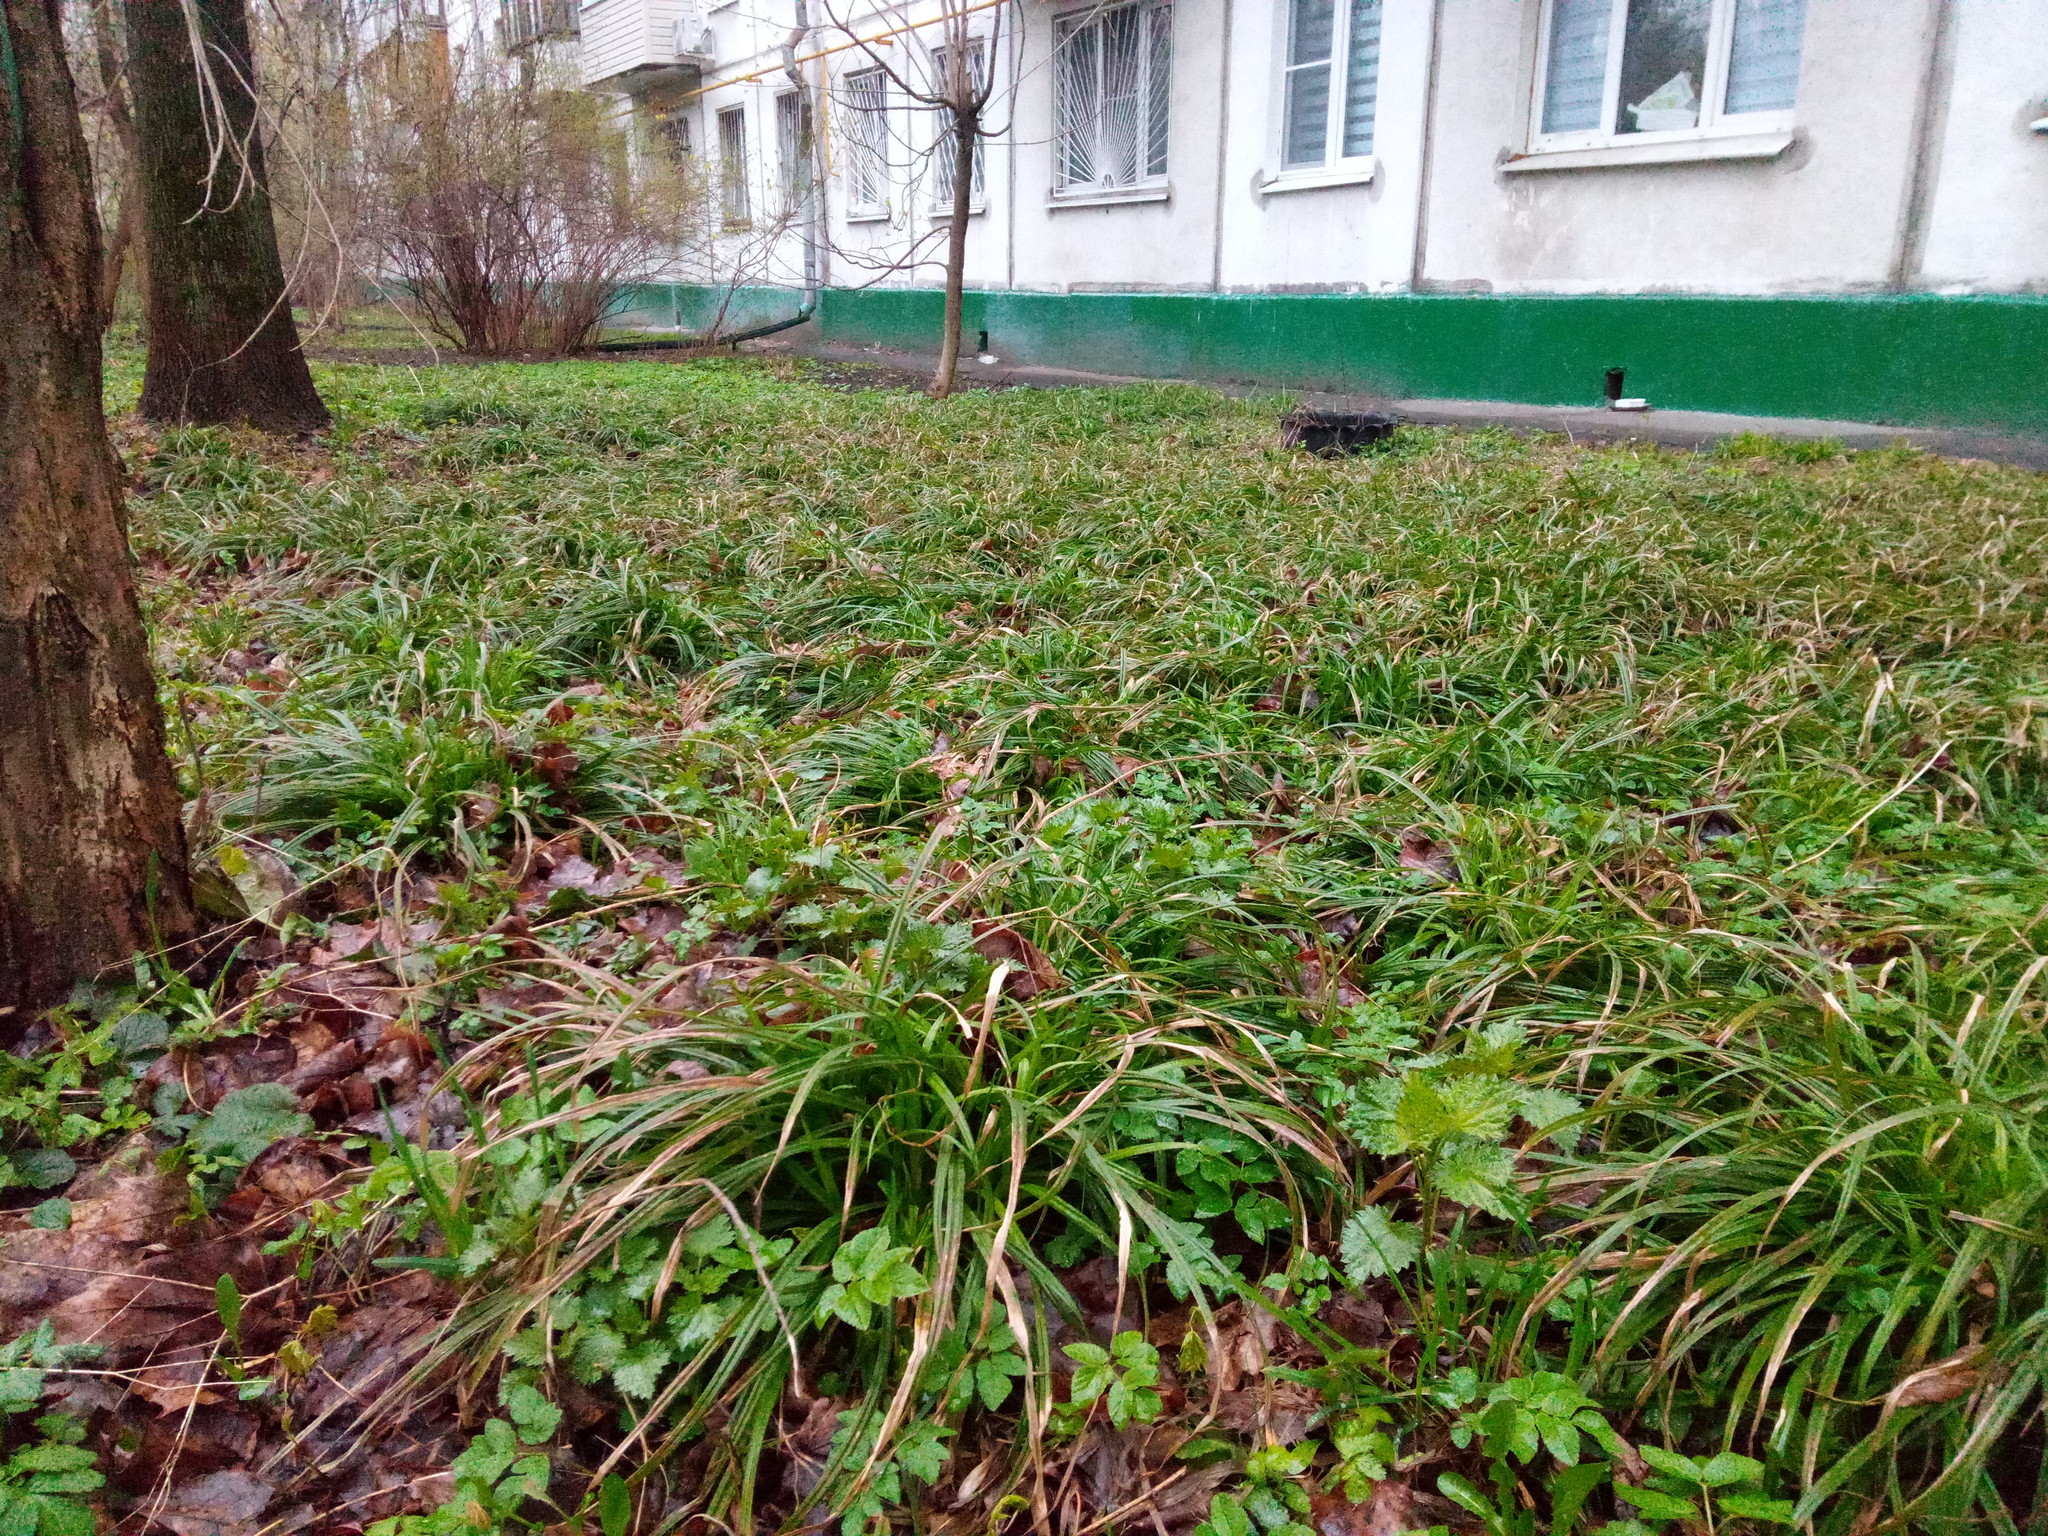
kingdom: Plantae
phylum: Tracheophyta
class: Liliopsida
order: Poales
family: Cyperaceae
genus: Carex
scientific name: Carex sylvatica
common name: Wood-sedge
